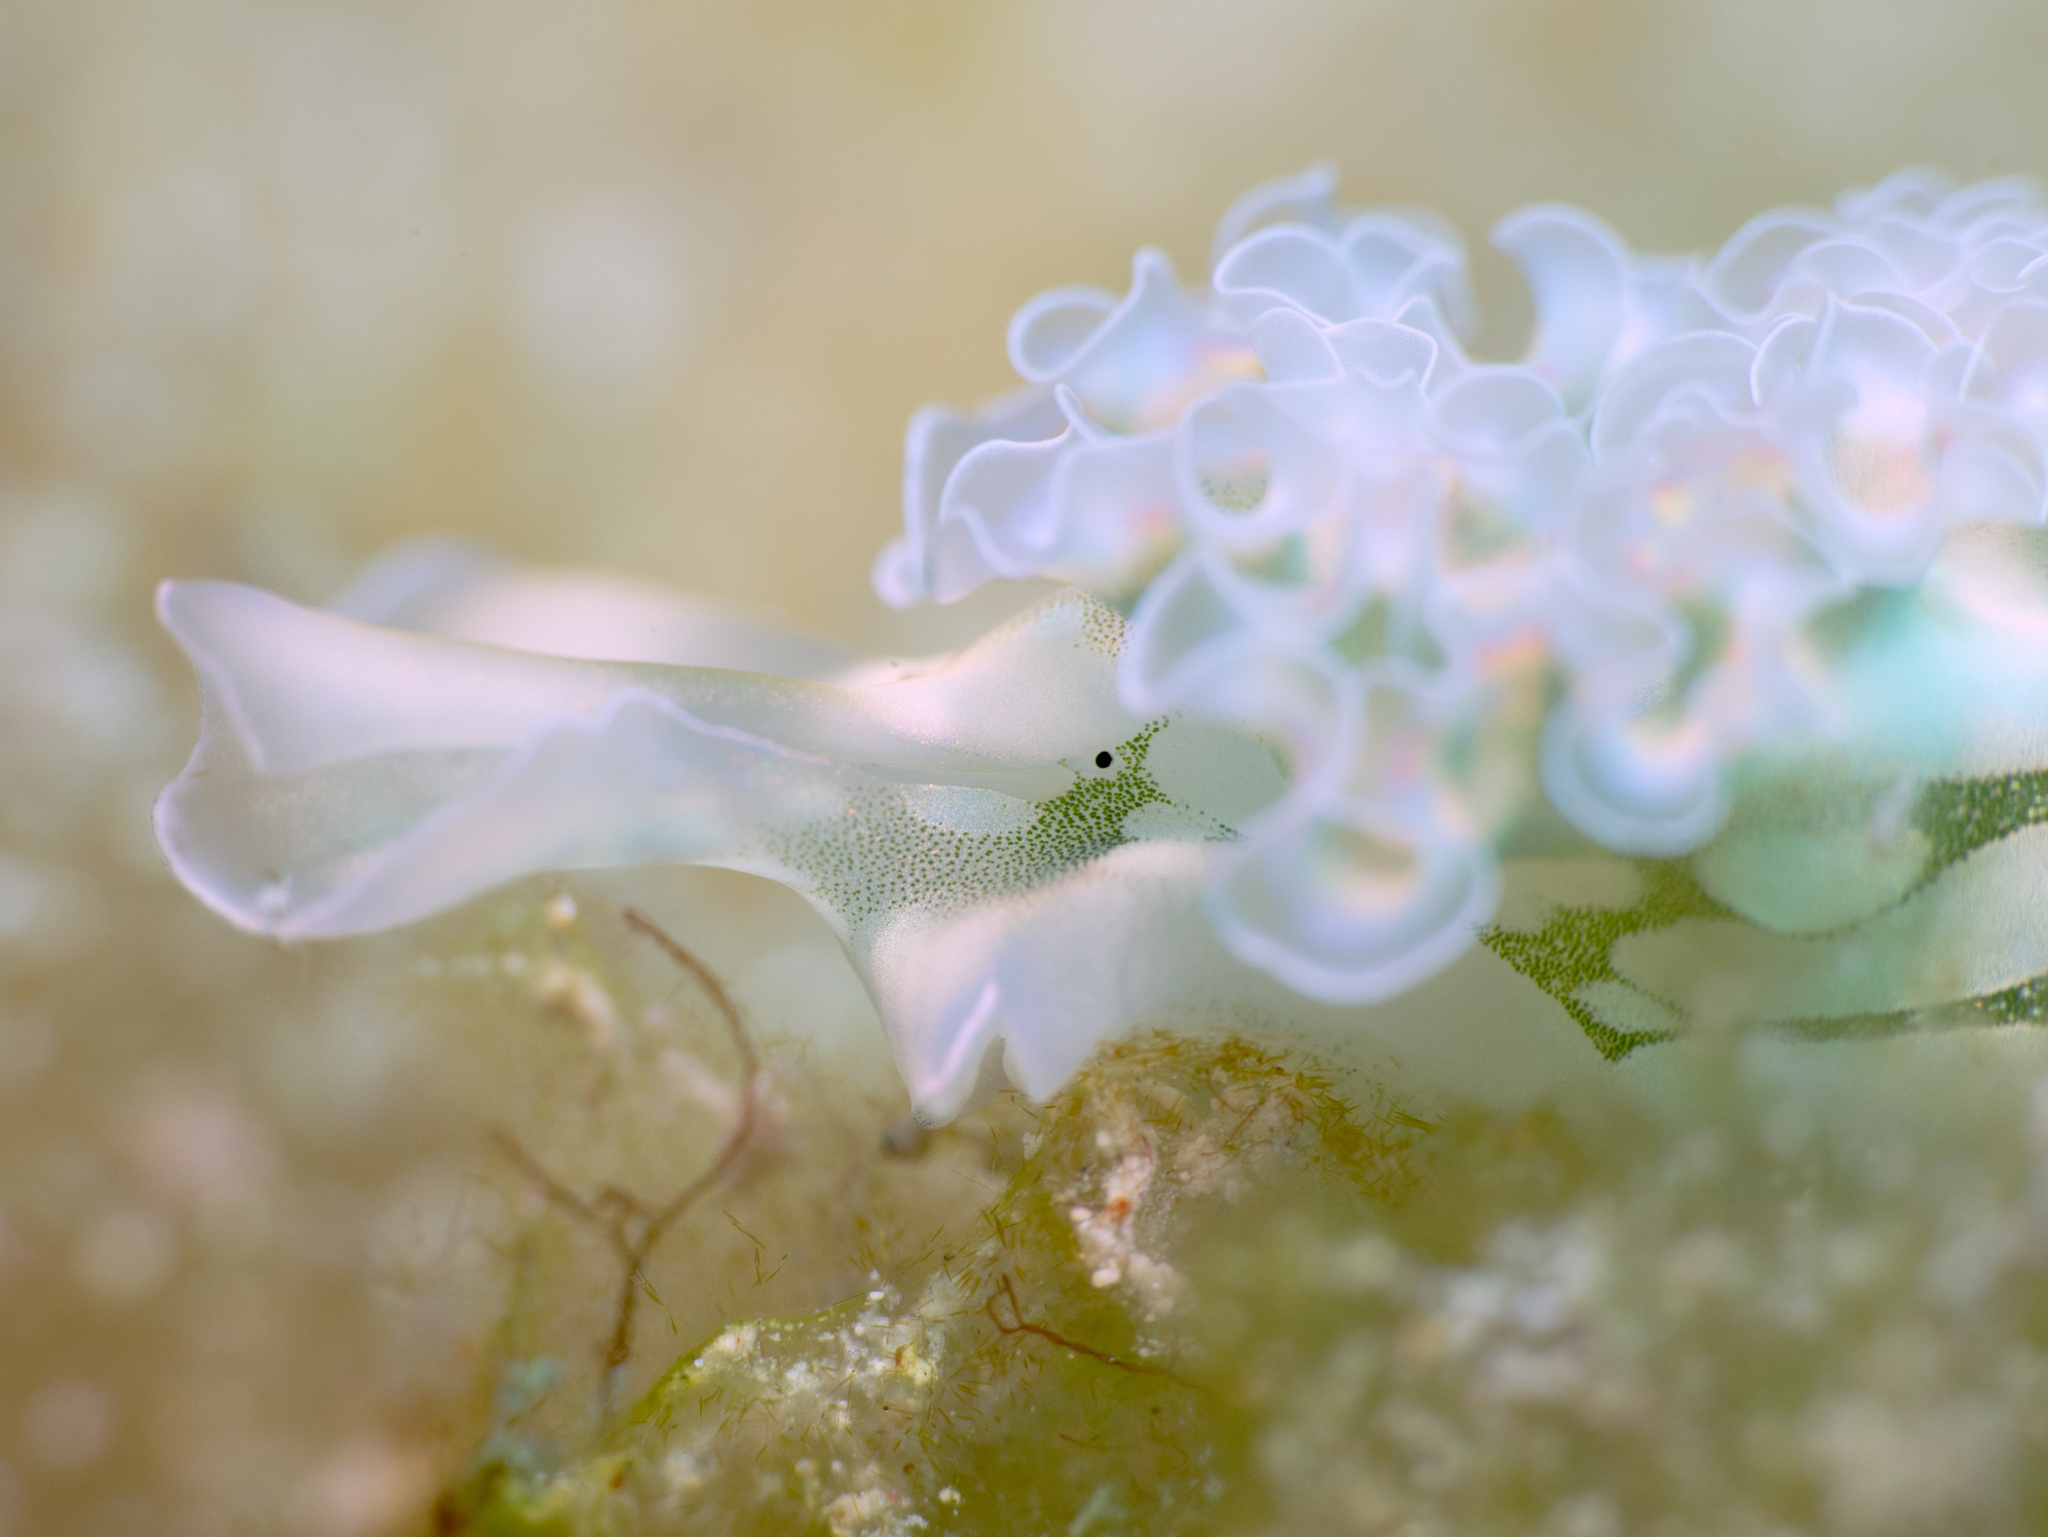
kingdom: Animalia
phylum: Mollusca
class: Gastropoda
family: Plakobranchidae
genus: Elysia
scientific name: Elysia crispata
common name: Lettuce slug
